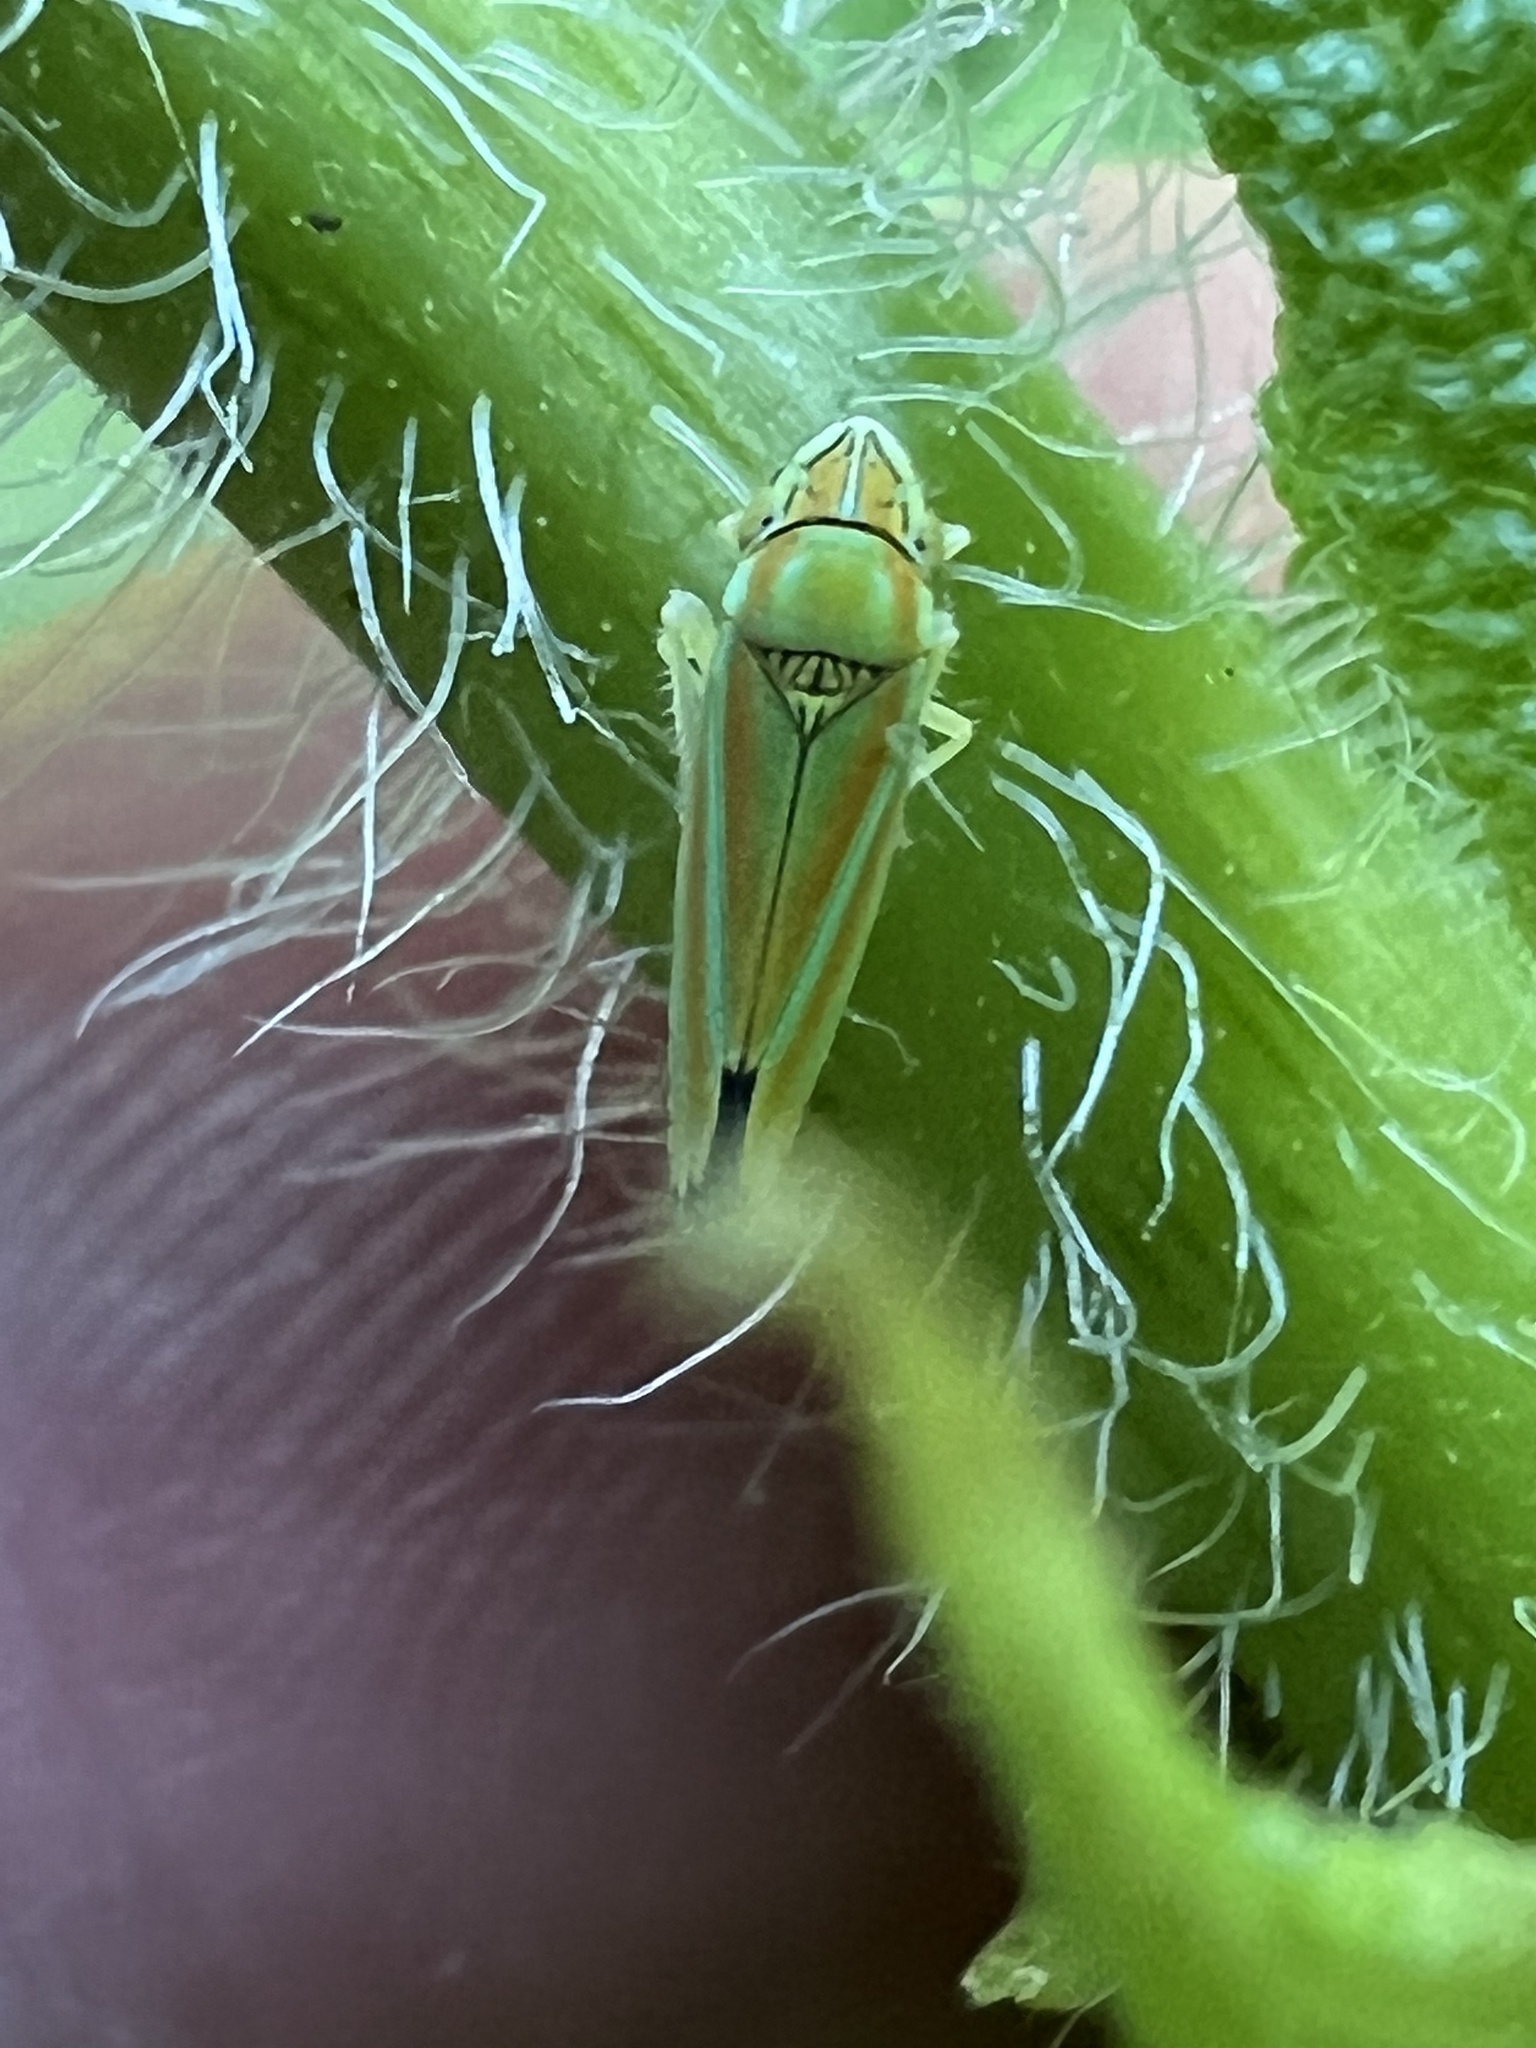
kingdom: Animalia
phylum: Arthropoda
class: Insecta
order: Hemiptera
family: Cicadellidae
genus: Graphocephala
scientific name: Graphocephala versuta
